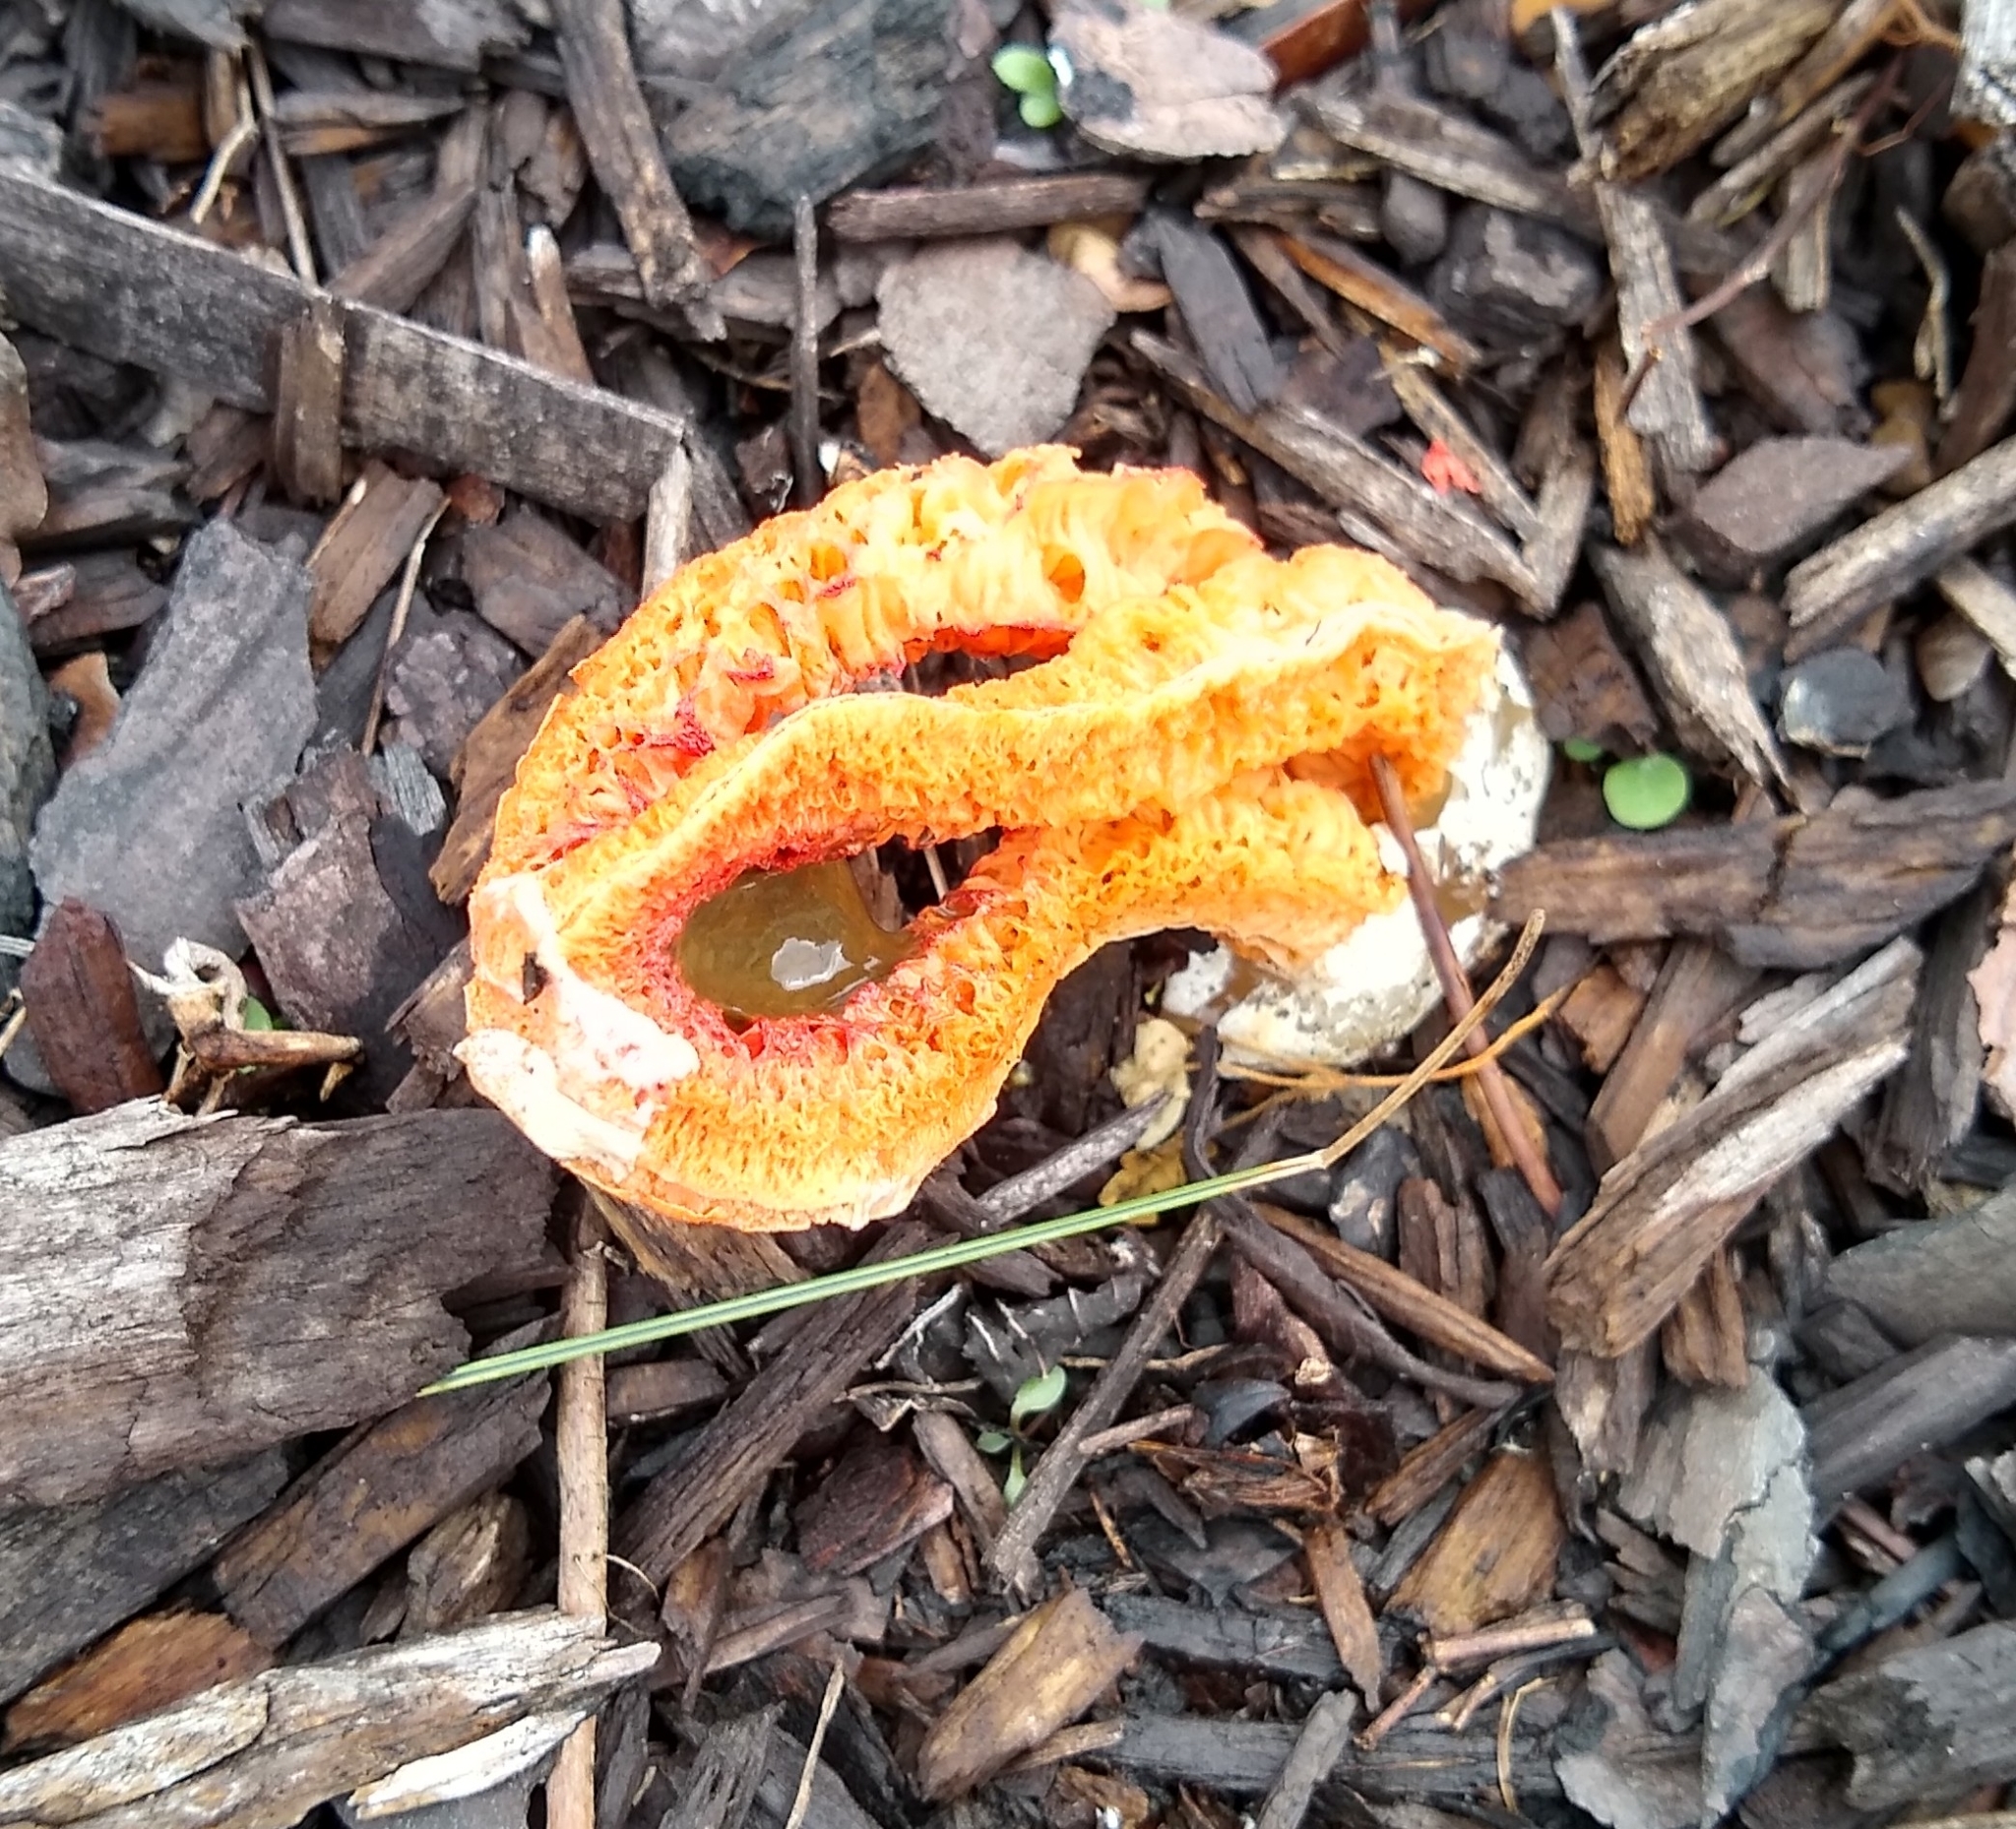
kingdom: Fungi
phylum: Basidiomycota
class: Agaricomycetes
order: Phallales
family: Phallaceae
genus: Clathrus
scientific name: Clathrus columnatus
